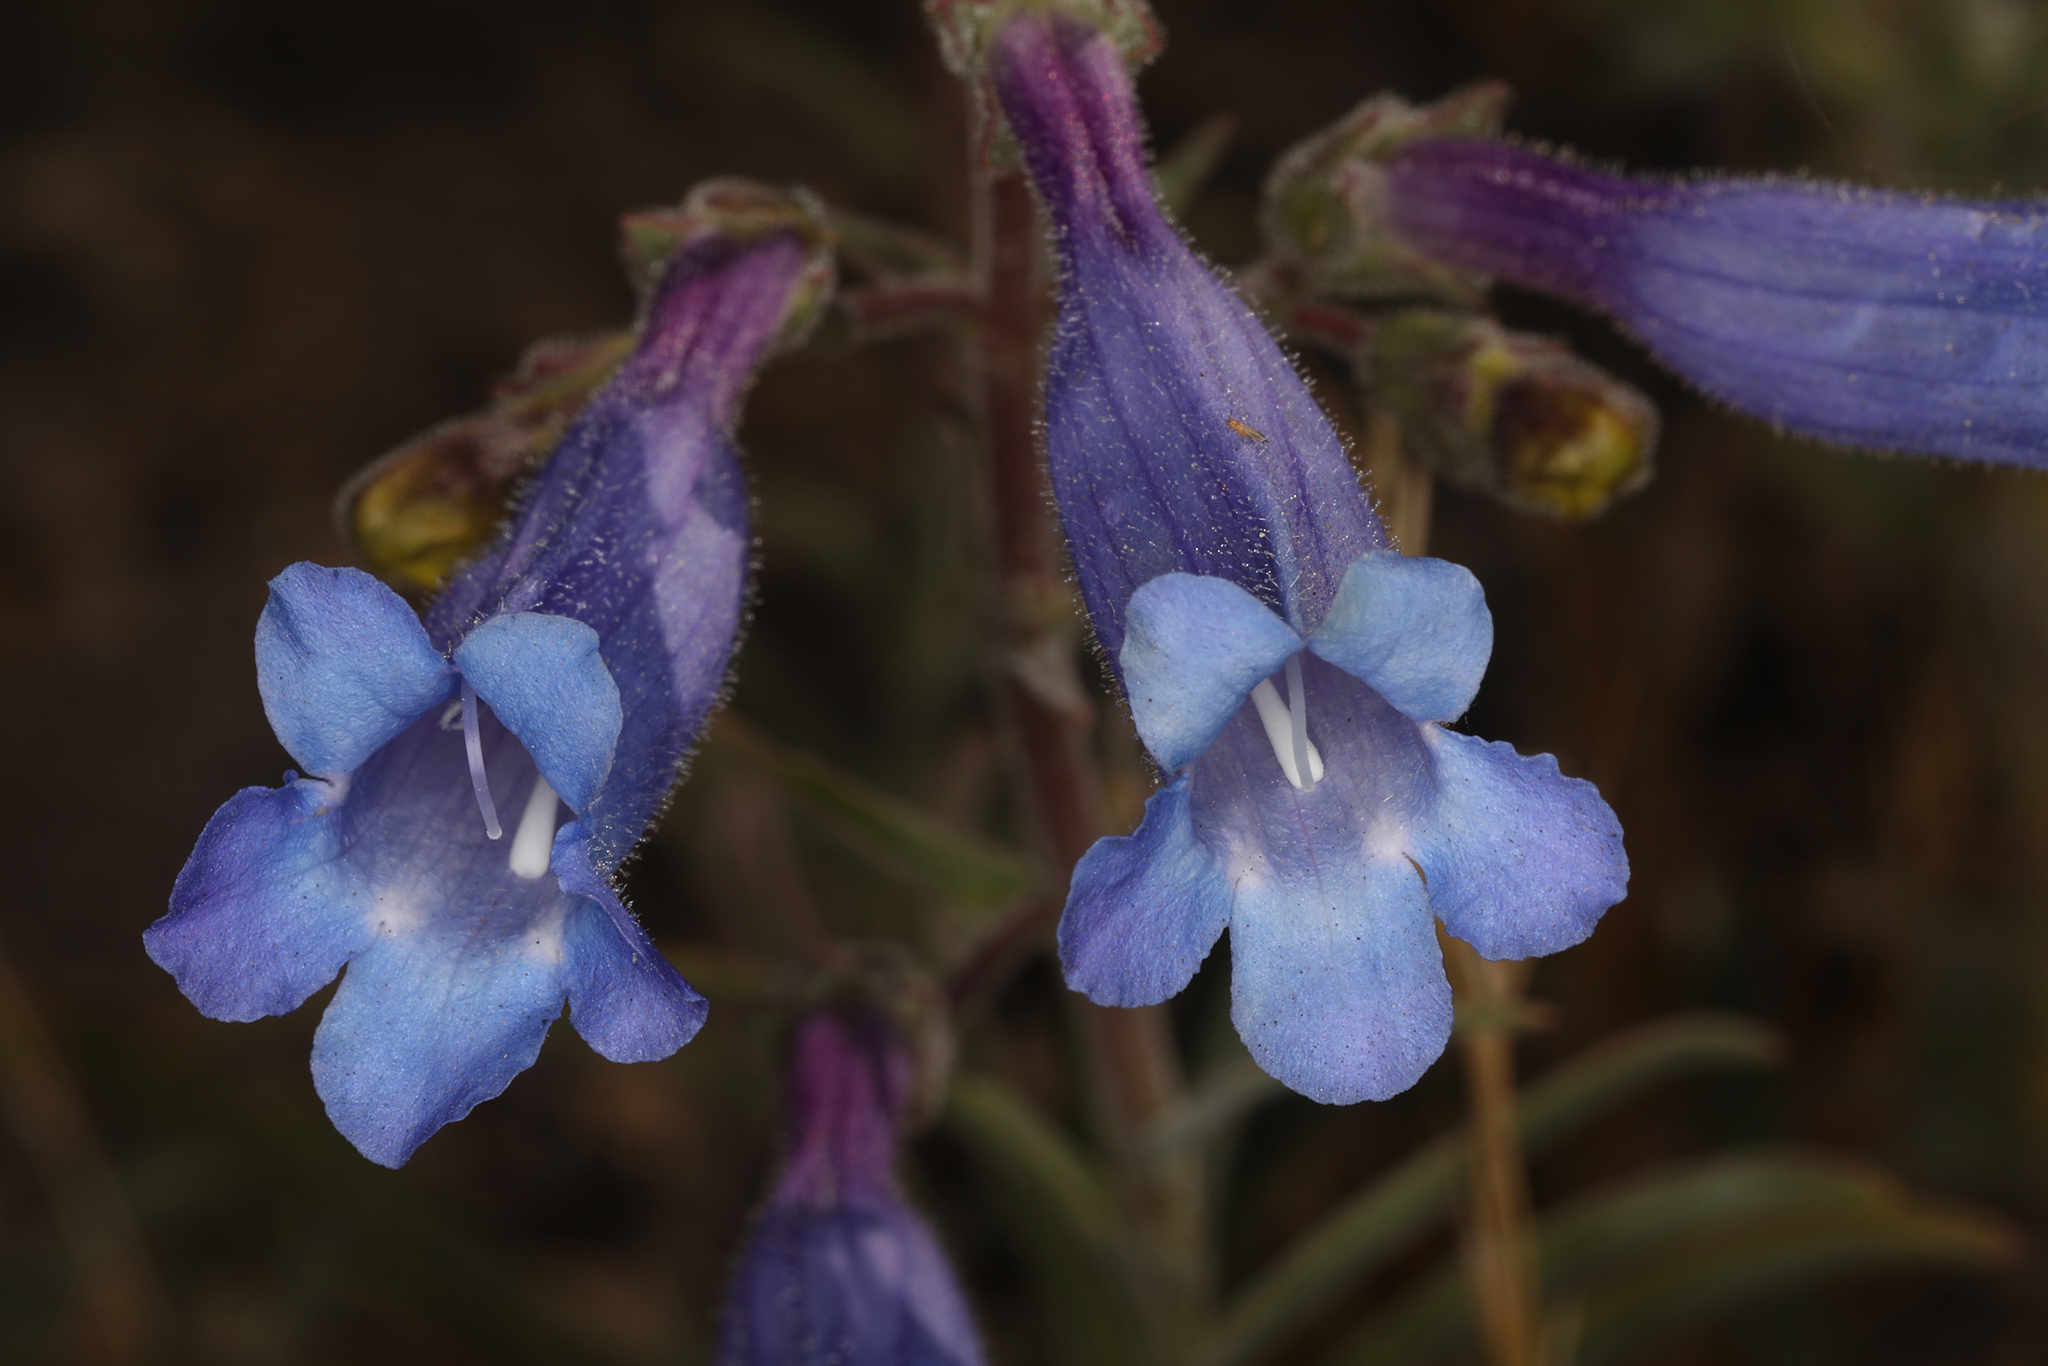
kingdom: Plantae
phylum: Tracheophyta
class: Magnoliopsida
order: Lamiales
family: Plantaginaceae
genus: Penstemon
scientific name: Penstemon laetus
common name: Gay penstemon
